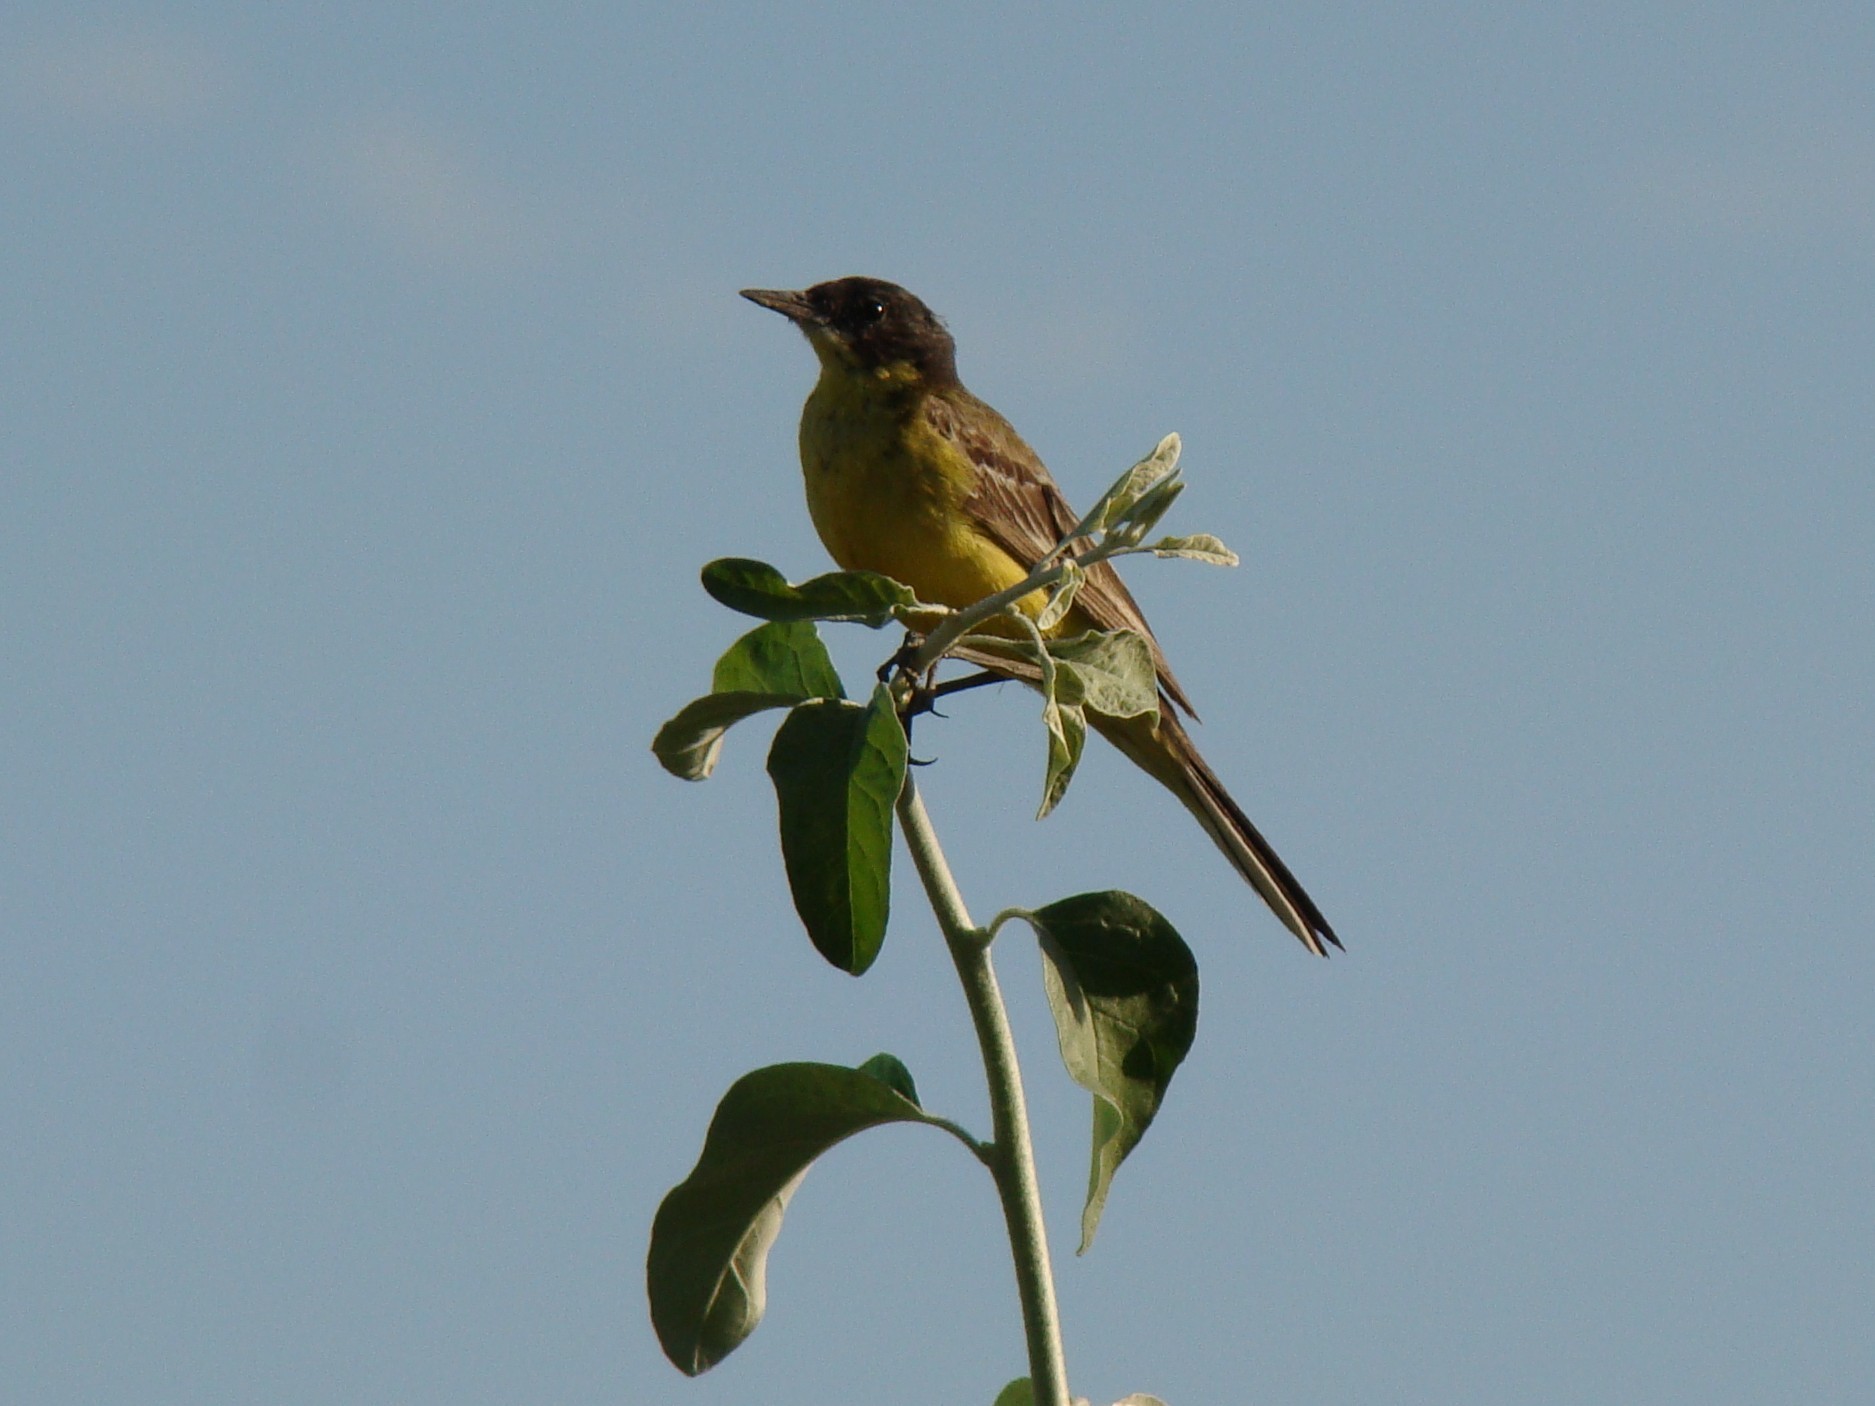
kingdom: Animalia
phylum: Chordata
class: Aves
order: Passeriformes
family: Motacillidae
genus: Motacilla
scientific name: Motacilla flava
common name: Western yellow wagtail
